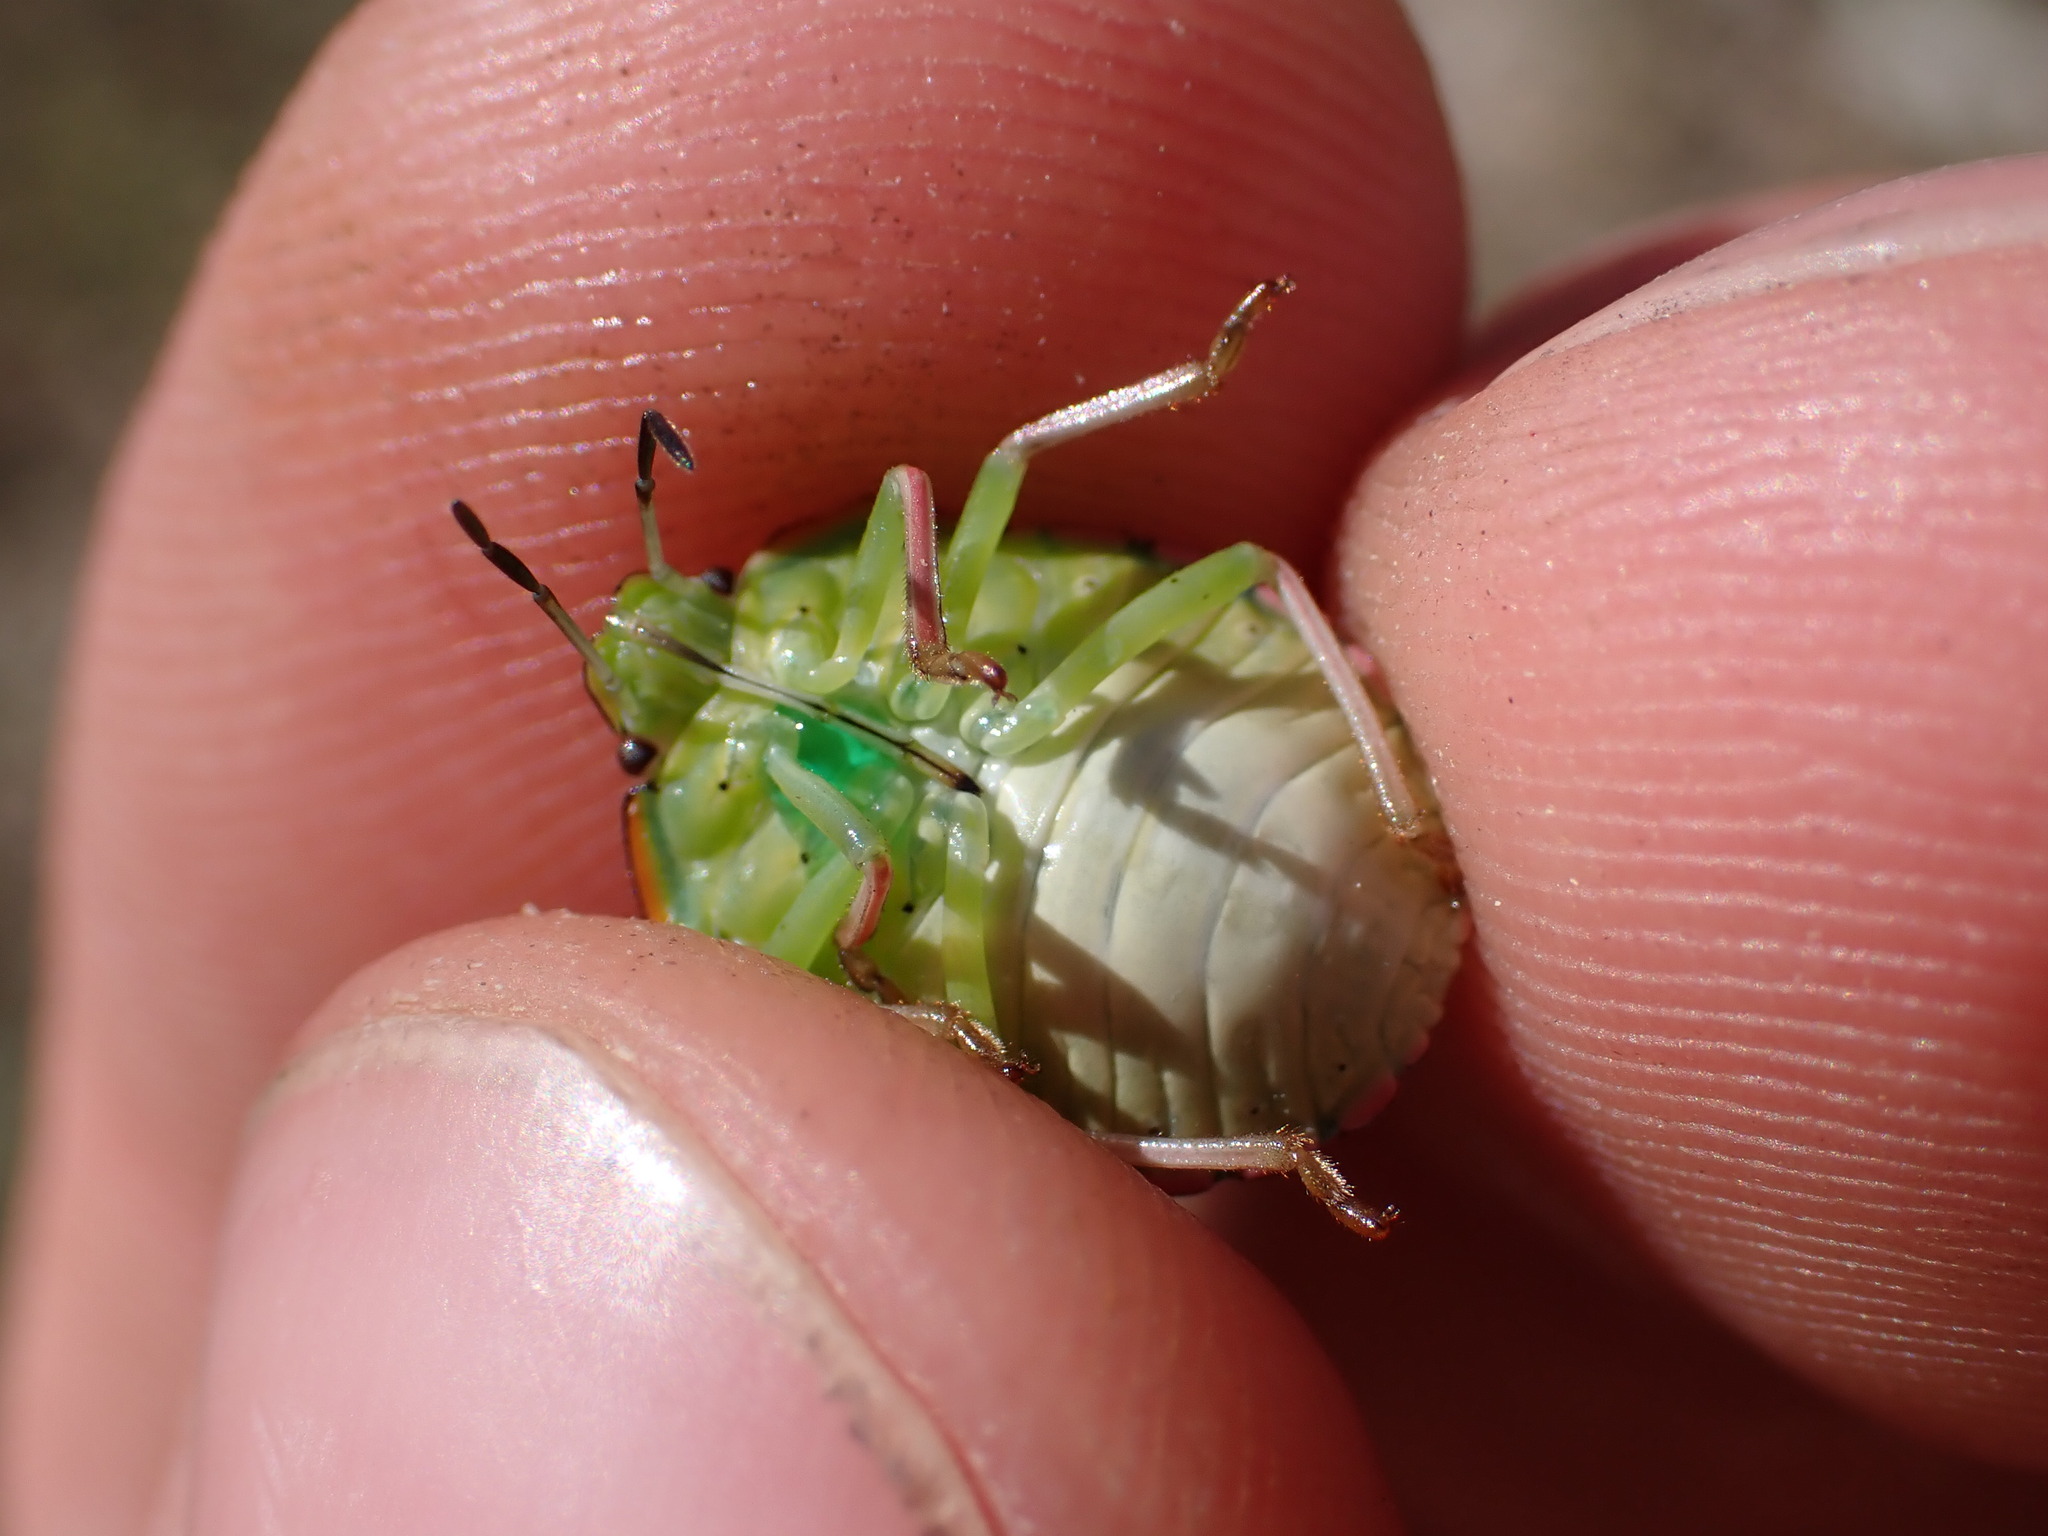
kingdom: Animalia
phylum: Arthropoda
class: Insecta
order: Hemiptera
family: Pentatomidae
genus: Nezara
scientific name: Nezara viridula
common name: Southern green stink bug
